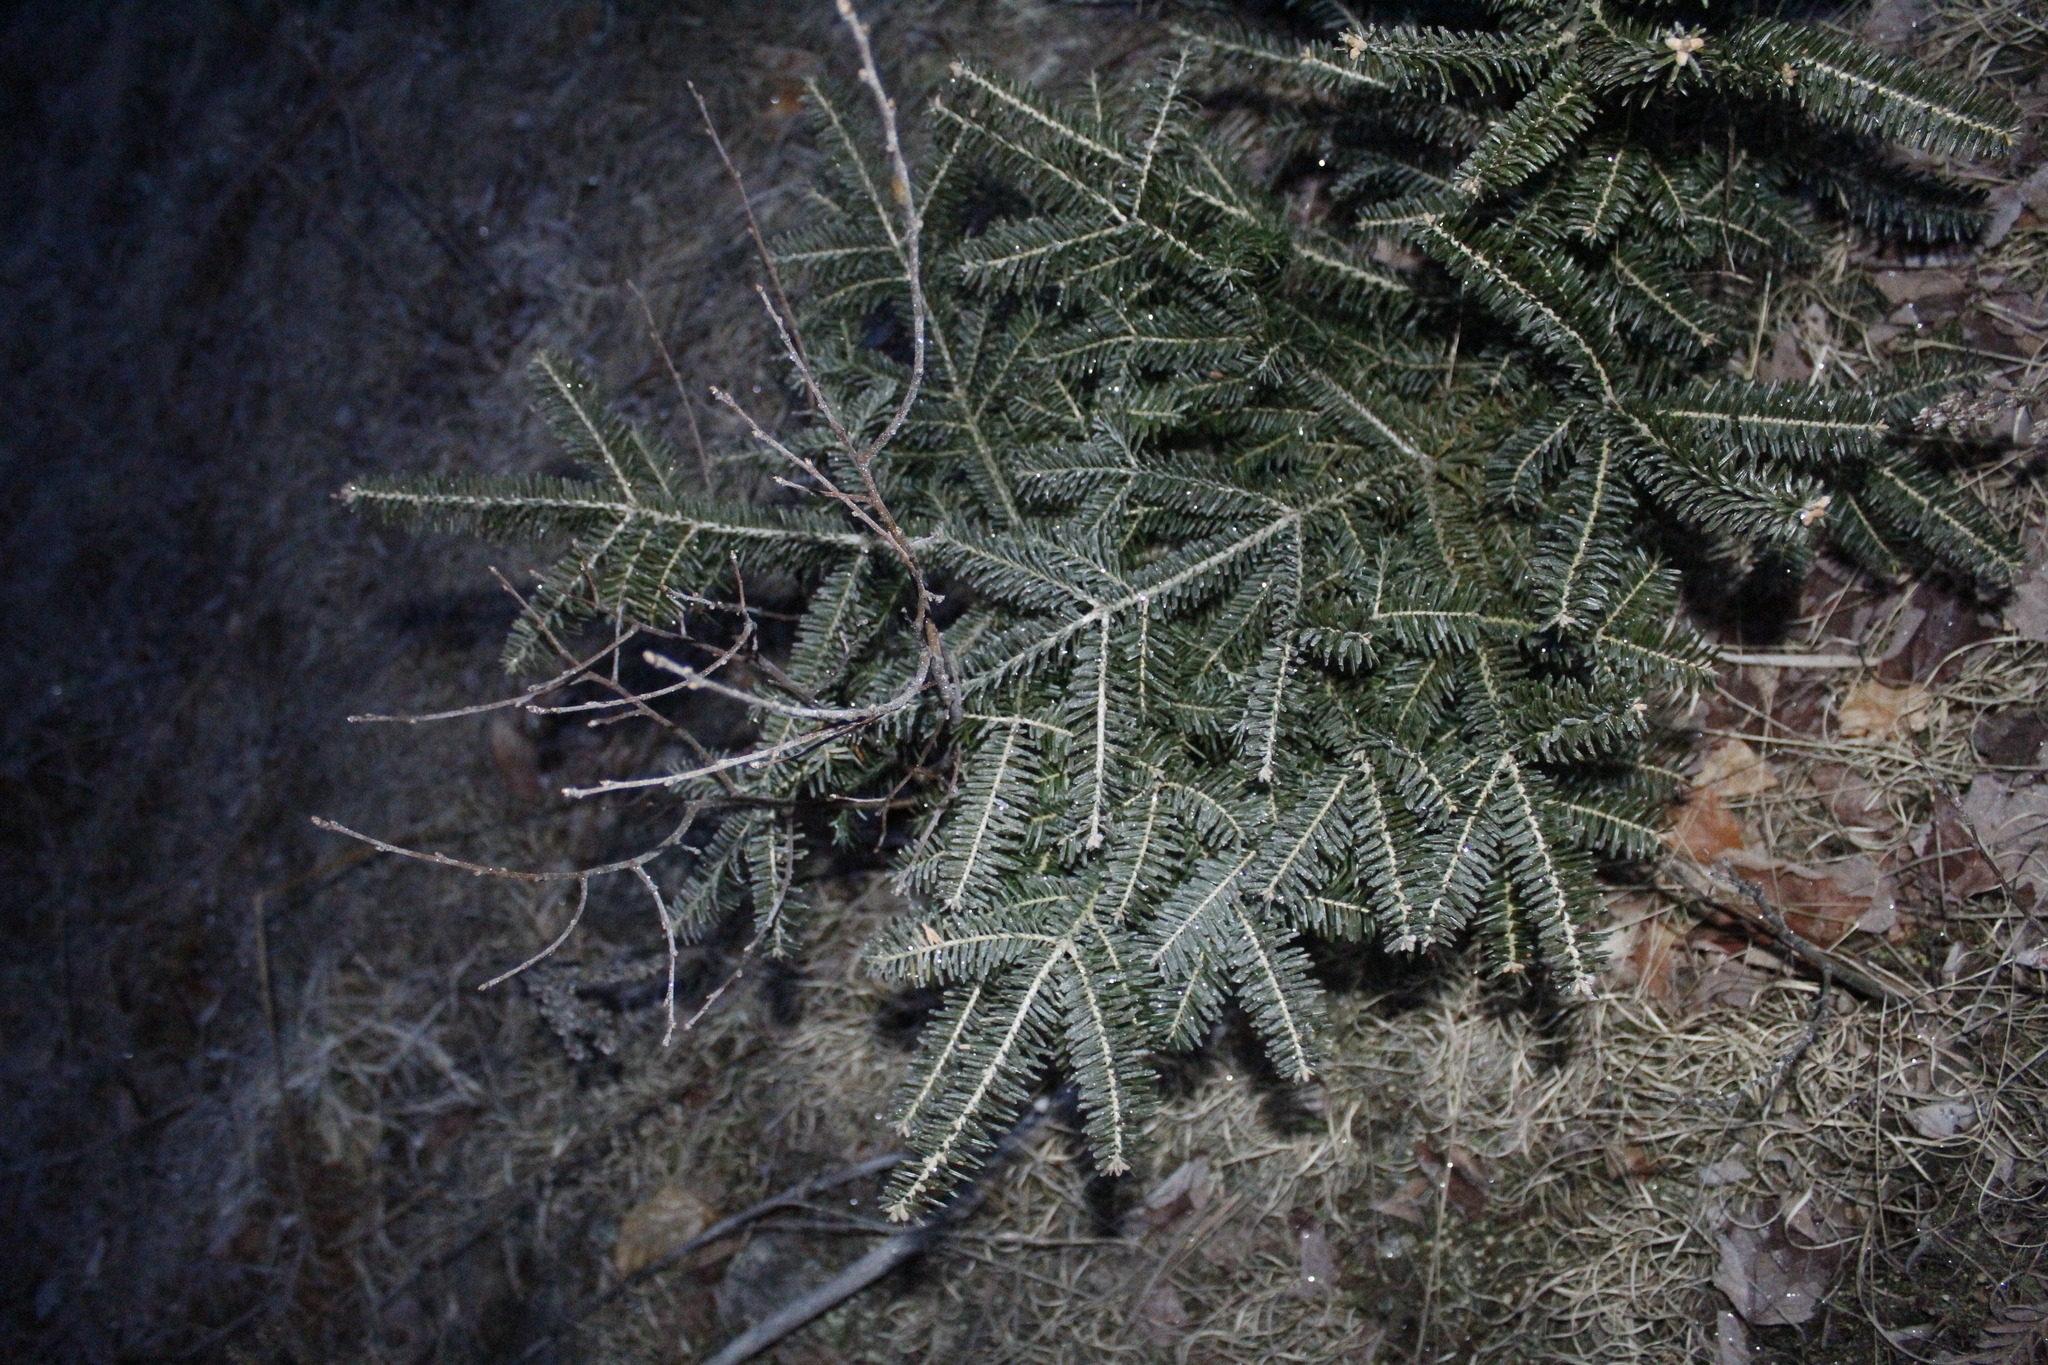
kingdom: Plantae
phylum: Tracheophyta
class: Pinopsida
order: Pinales
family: Pinaceae
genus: Abies
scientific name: Abies balsamea
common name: Balsam fir
